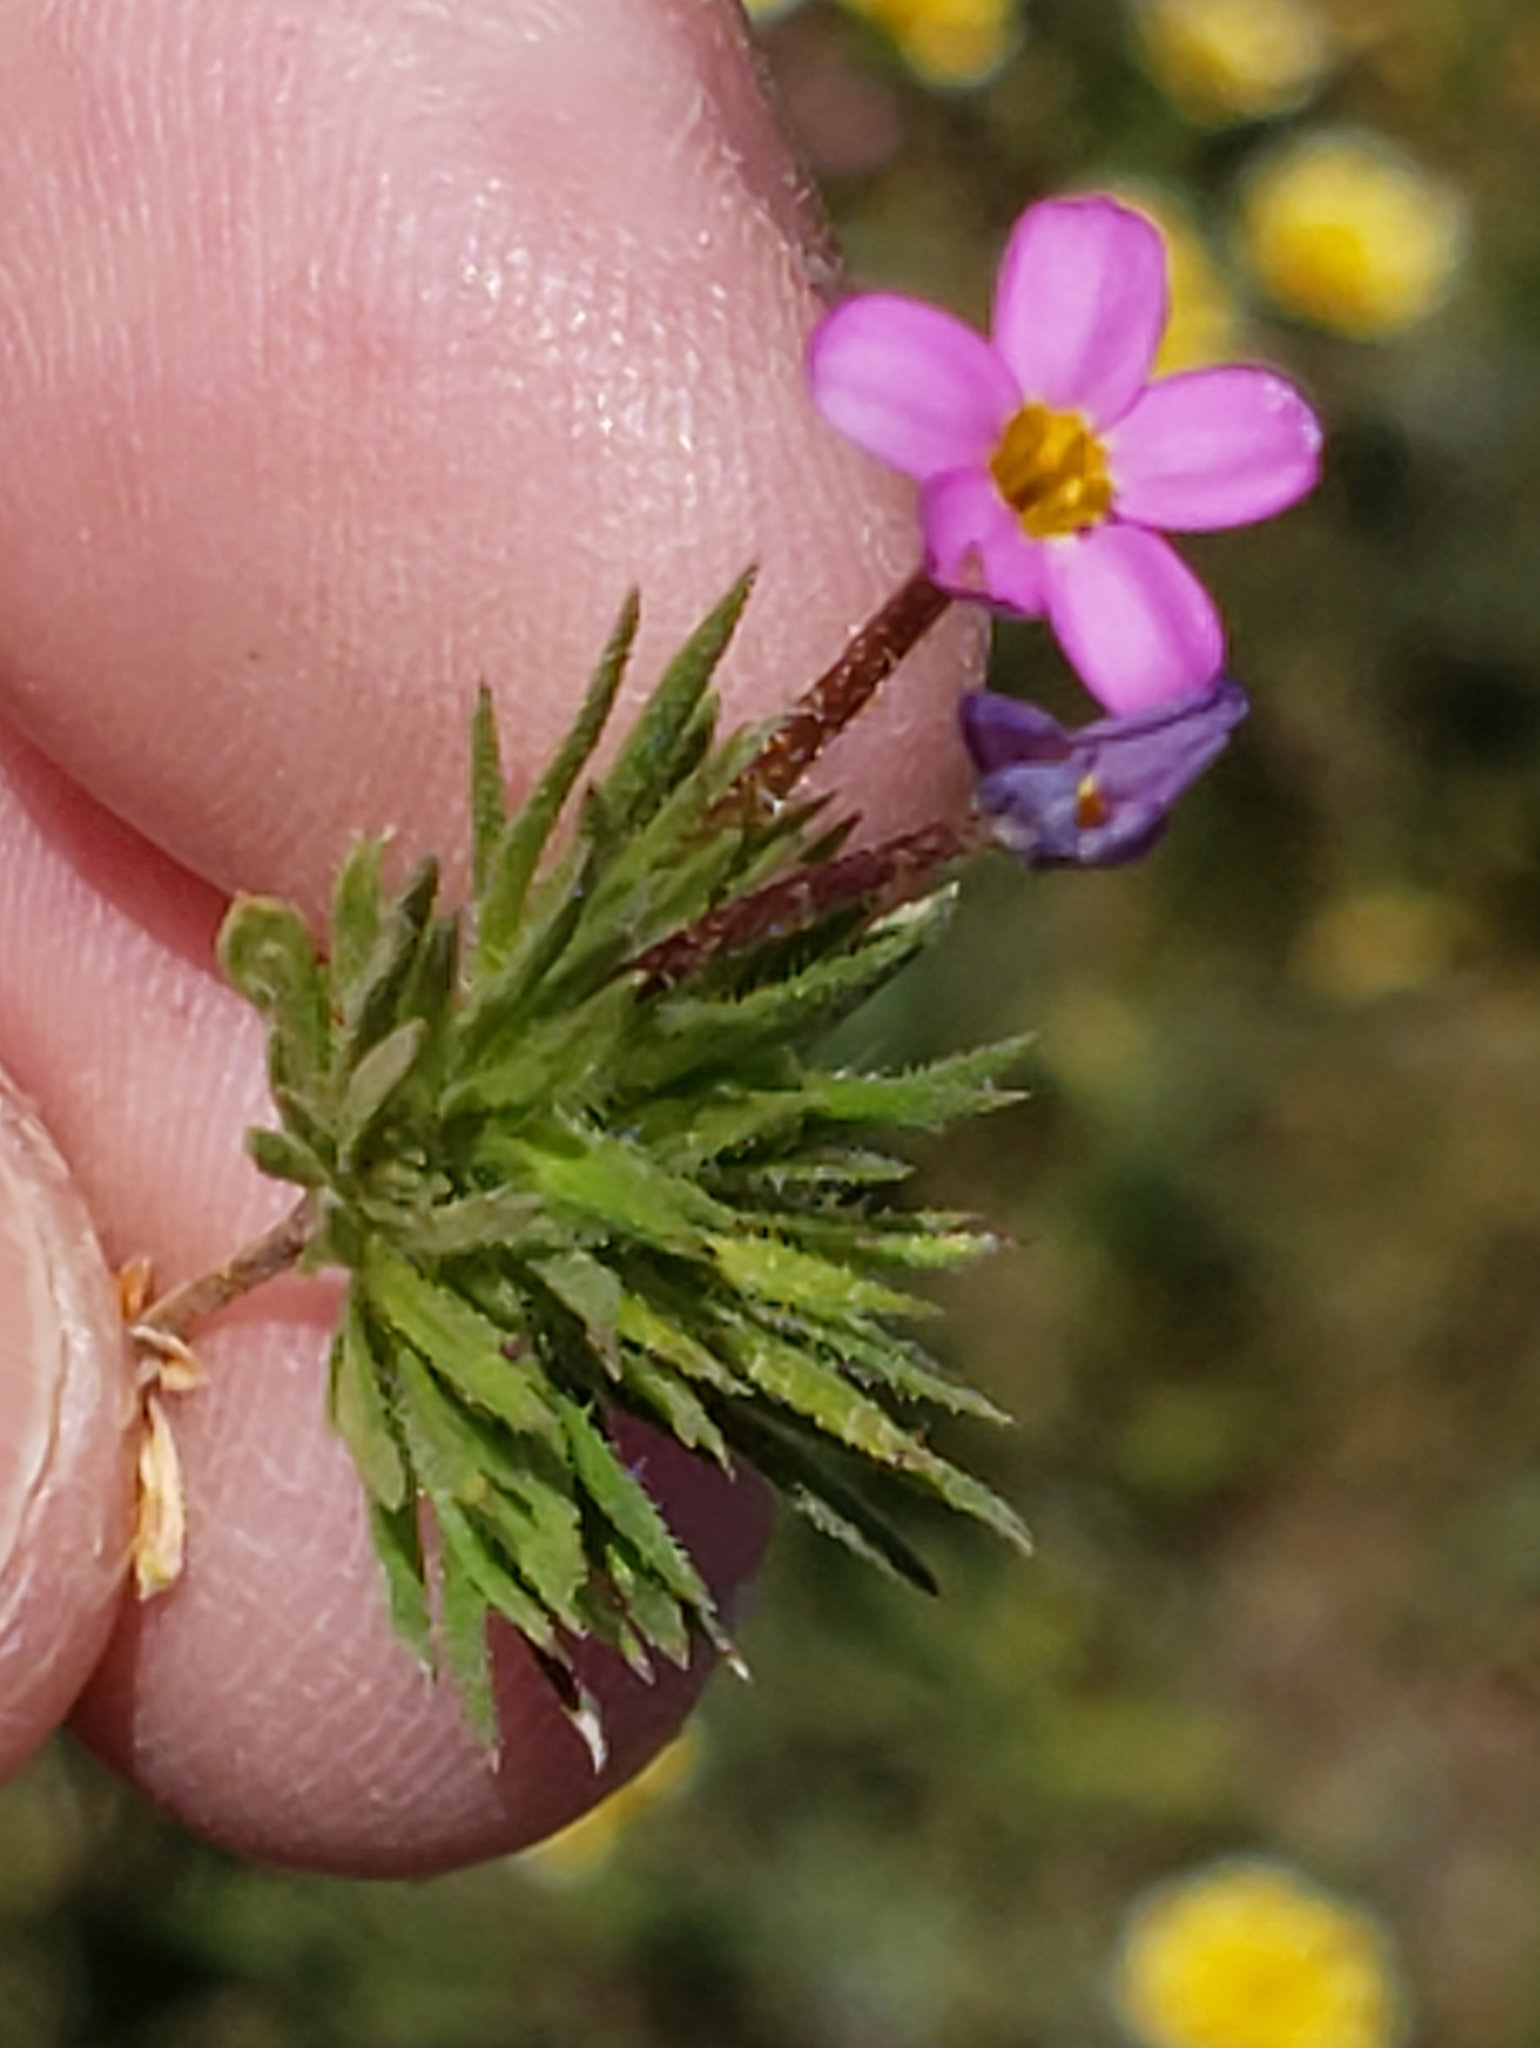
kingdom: Plantae
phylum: Tracheophyta
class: Magnoliopsida
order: Ericales
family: Polemoniaceae
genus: Leptosiphon
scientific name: Leptosiphon bicolor
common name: True babystars
